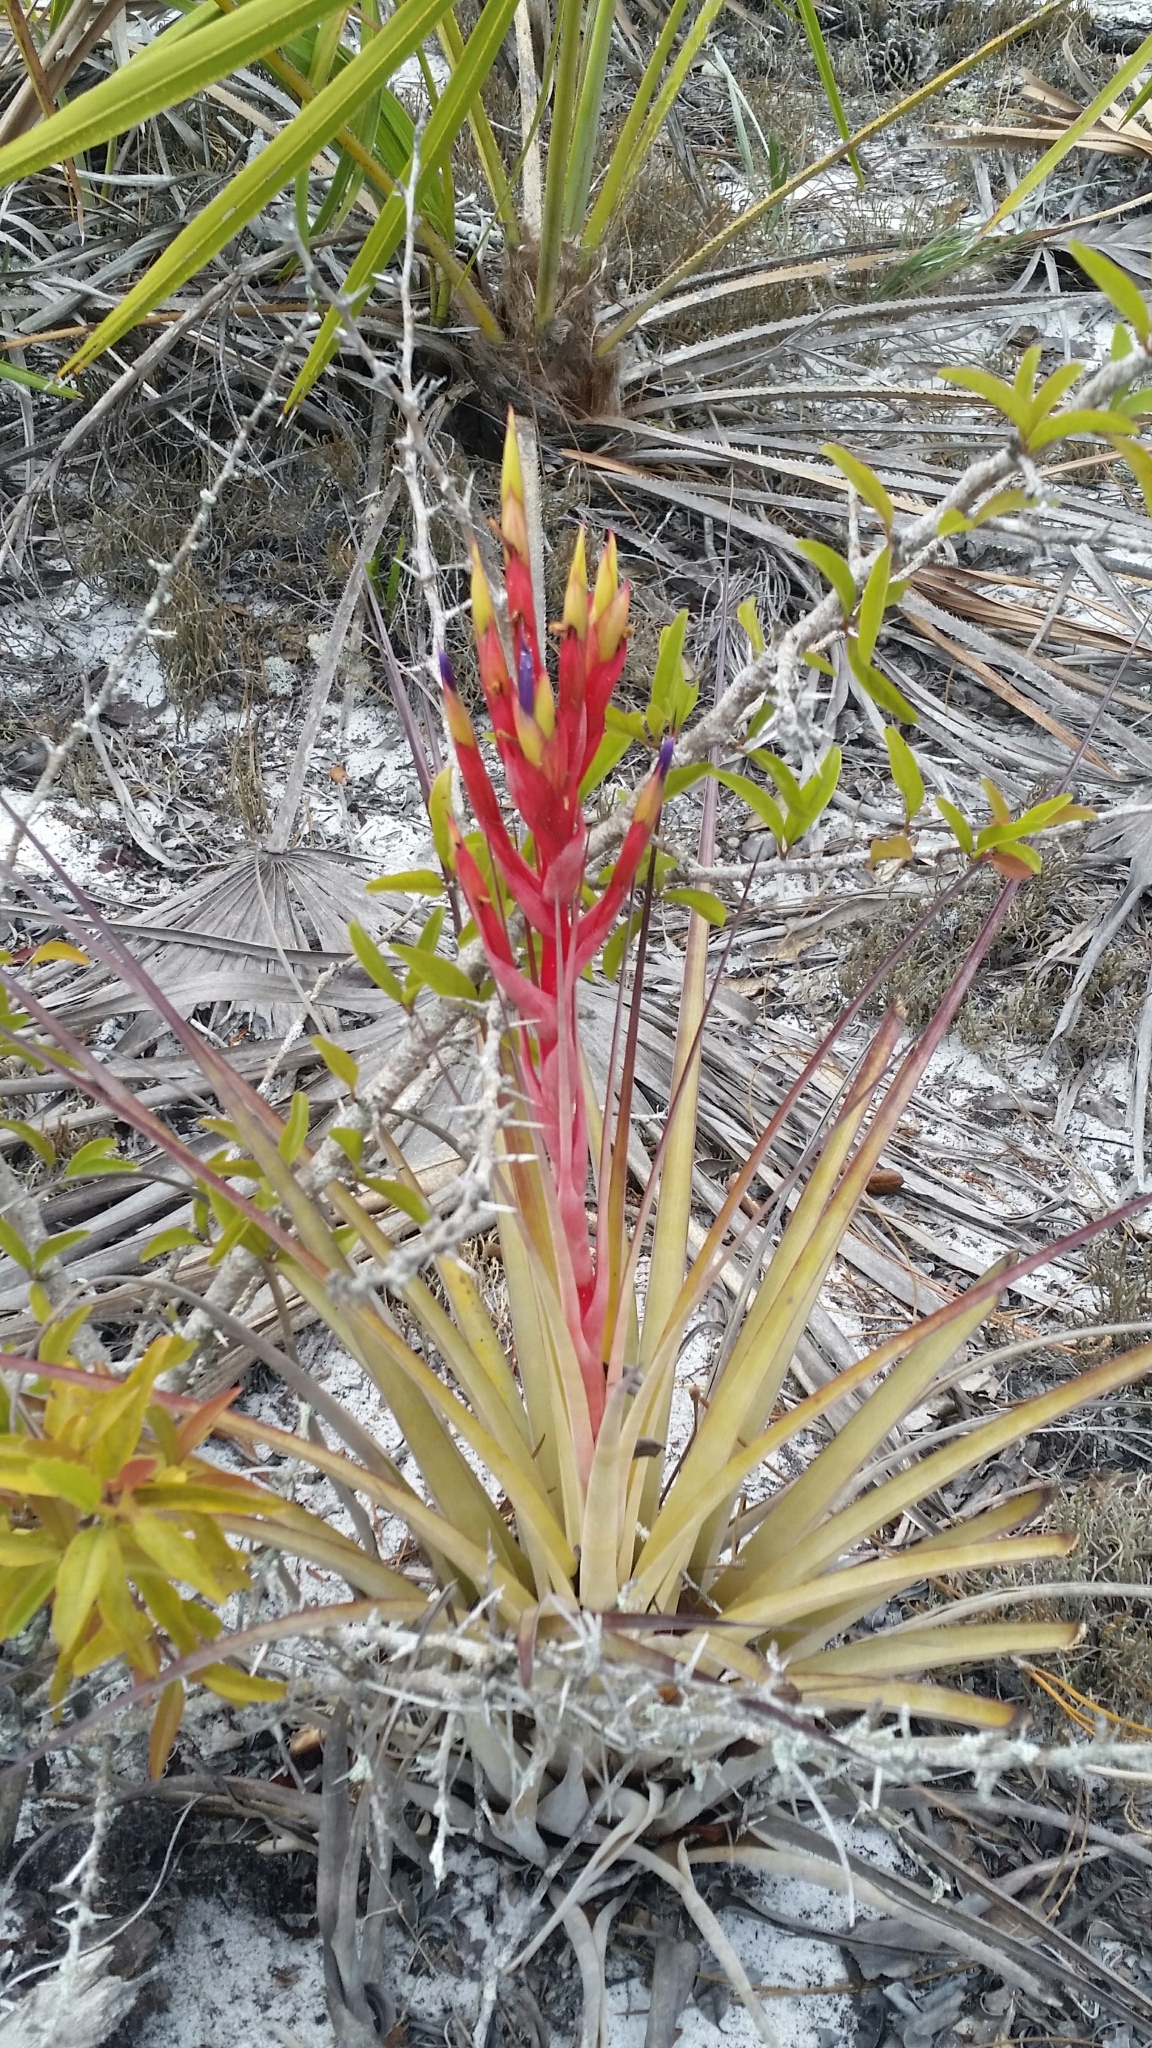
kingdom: Plantae
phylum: Tracheophyta
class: Liliopsida
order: Poales
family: Bromeliaceae
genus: Tillandsia
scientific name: Tillandsia fasciculata
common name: Giant airplant
